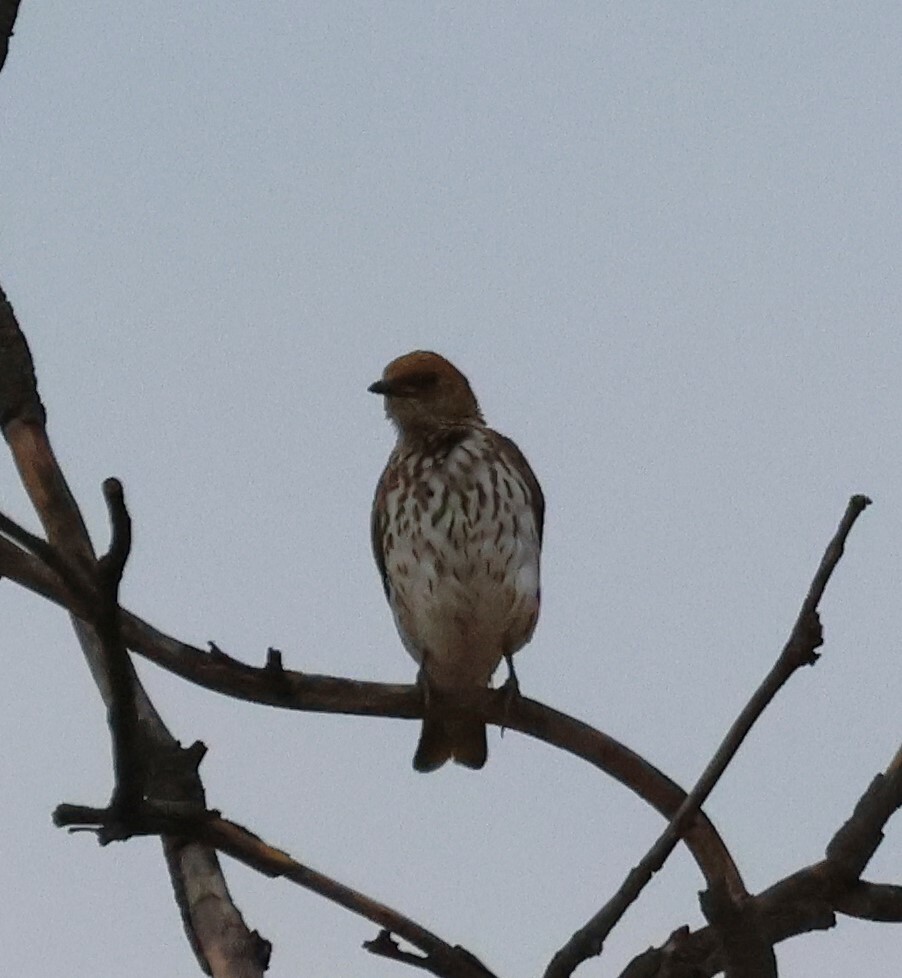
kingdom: Animalia
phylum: Chordata
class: Aves
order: Passeriformes
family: Sturnidae
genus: Cinnyricinclus
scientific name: Cinnyricinclus leucogaster
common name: Violet-backed starling
